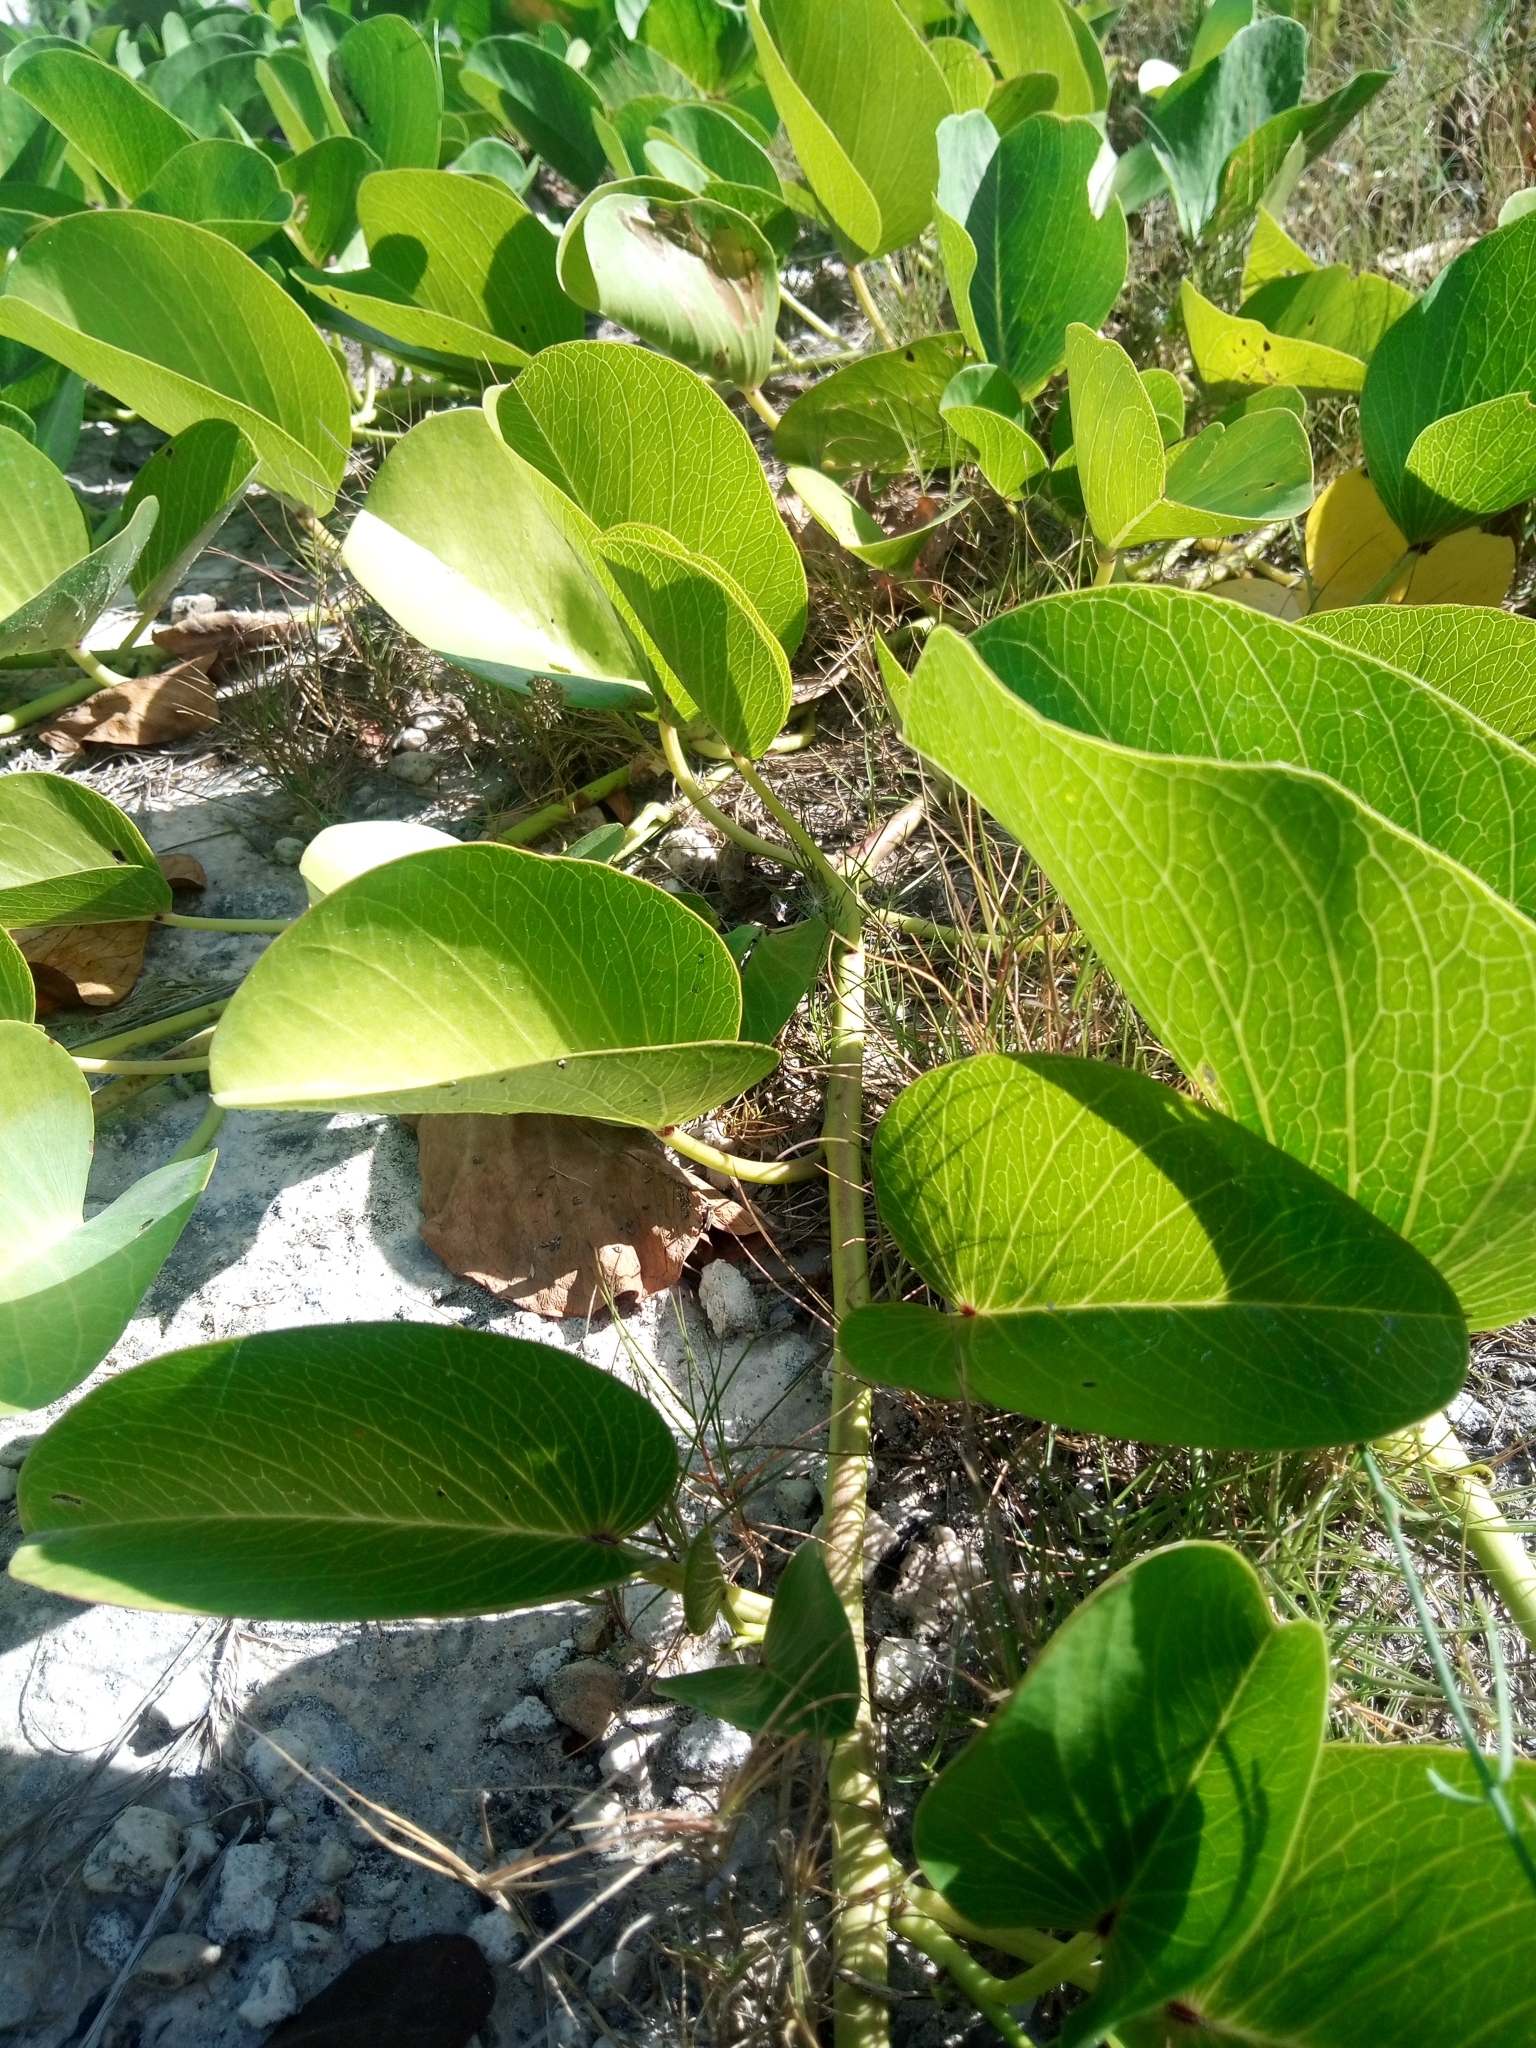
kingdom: Plantae
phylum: Tracheophyta
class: Magnoliopsida
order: Solanales
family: Convolvulaceae
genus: Ipomoea
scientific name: Ipomoea pes-caprae
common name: Beach morning glory
